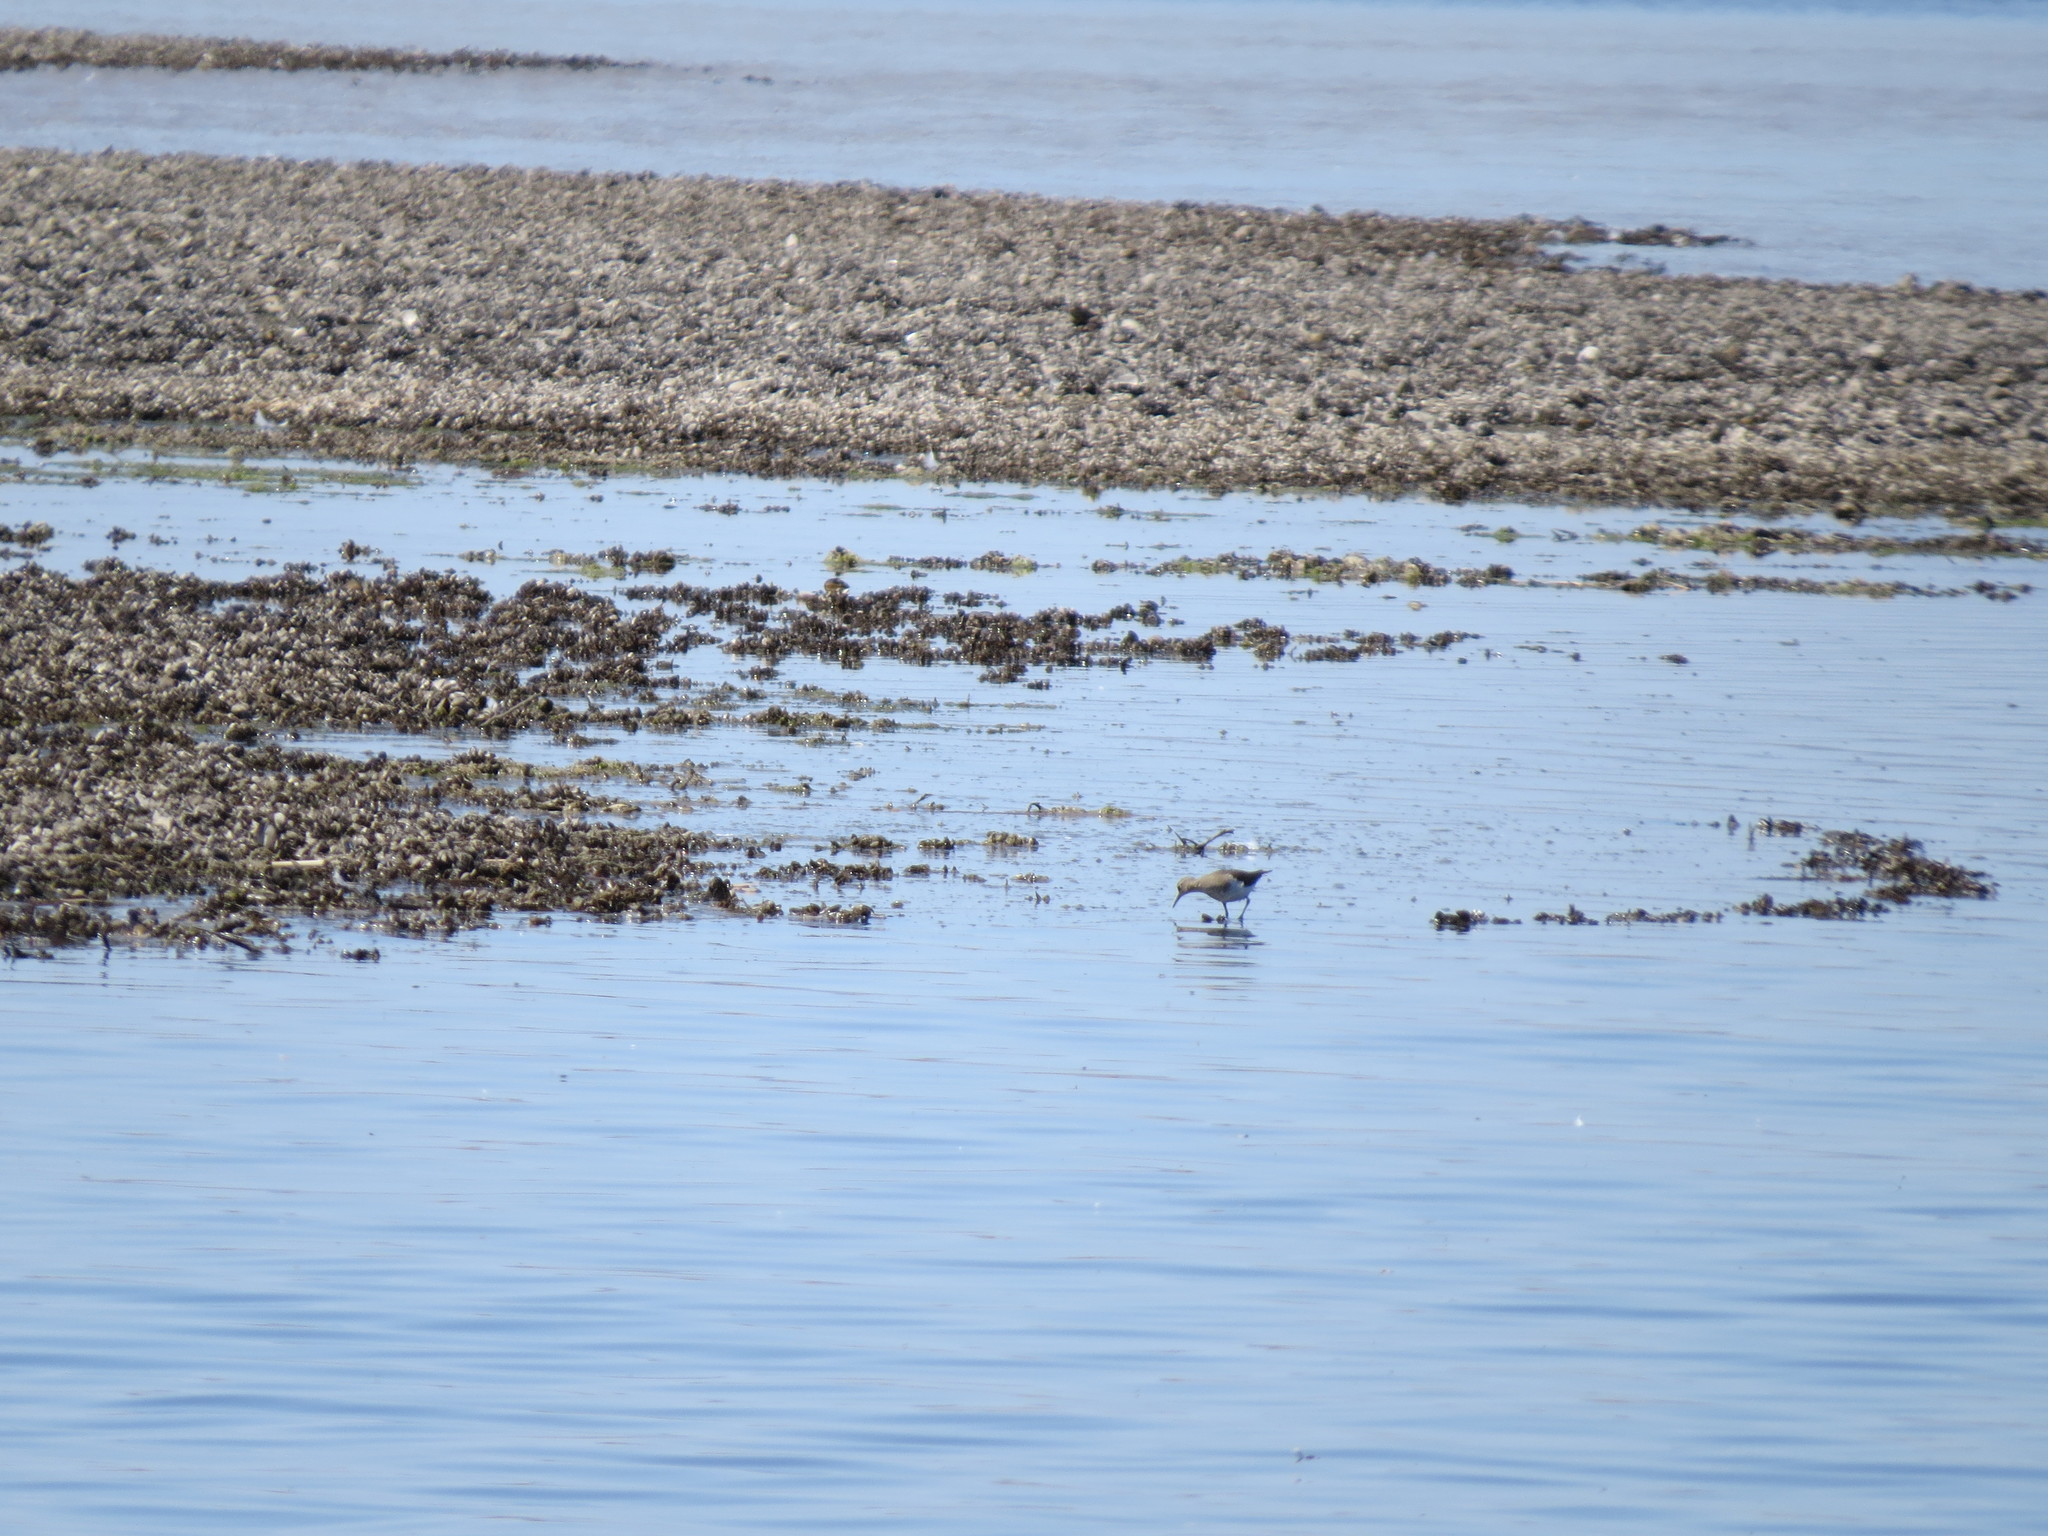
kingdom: Animalia
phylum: Chordata
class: Aves
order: Charadriiformes
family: Scolopacidae
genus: Actitis
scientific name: Actitis hypoleucos
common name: Common sandpiper
